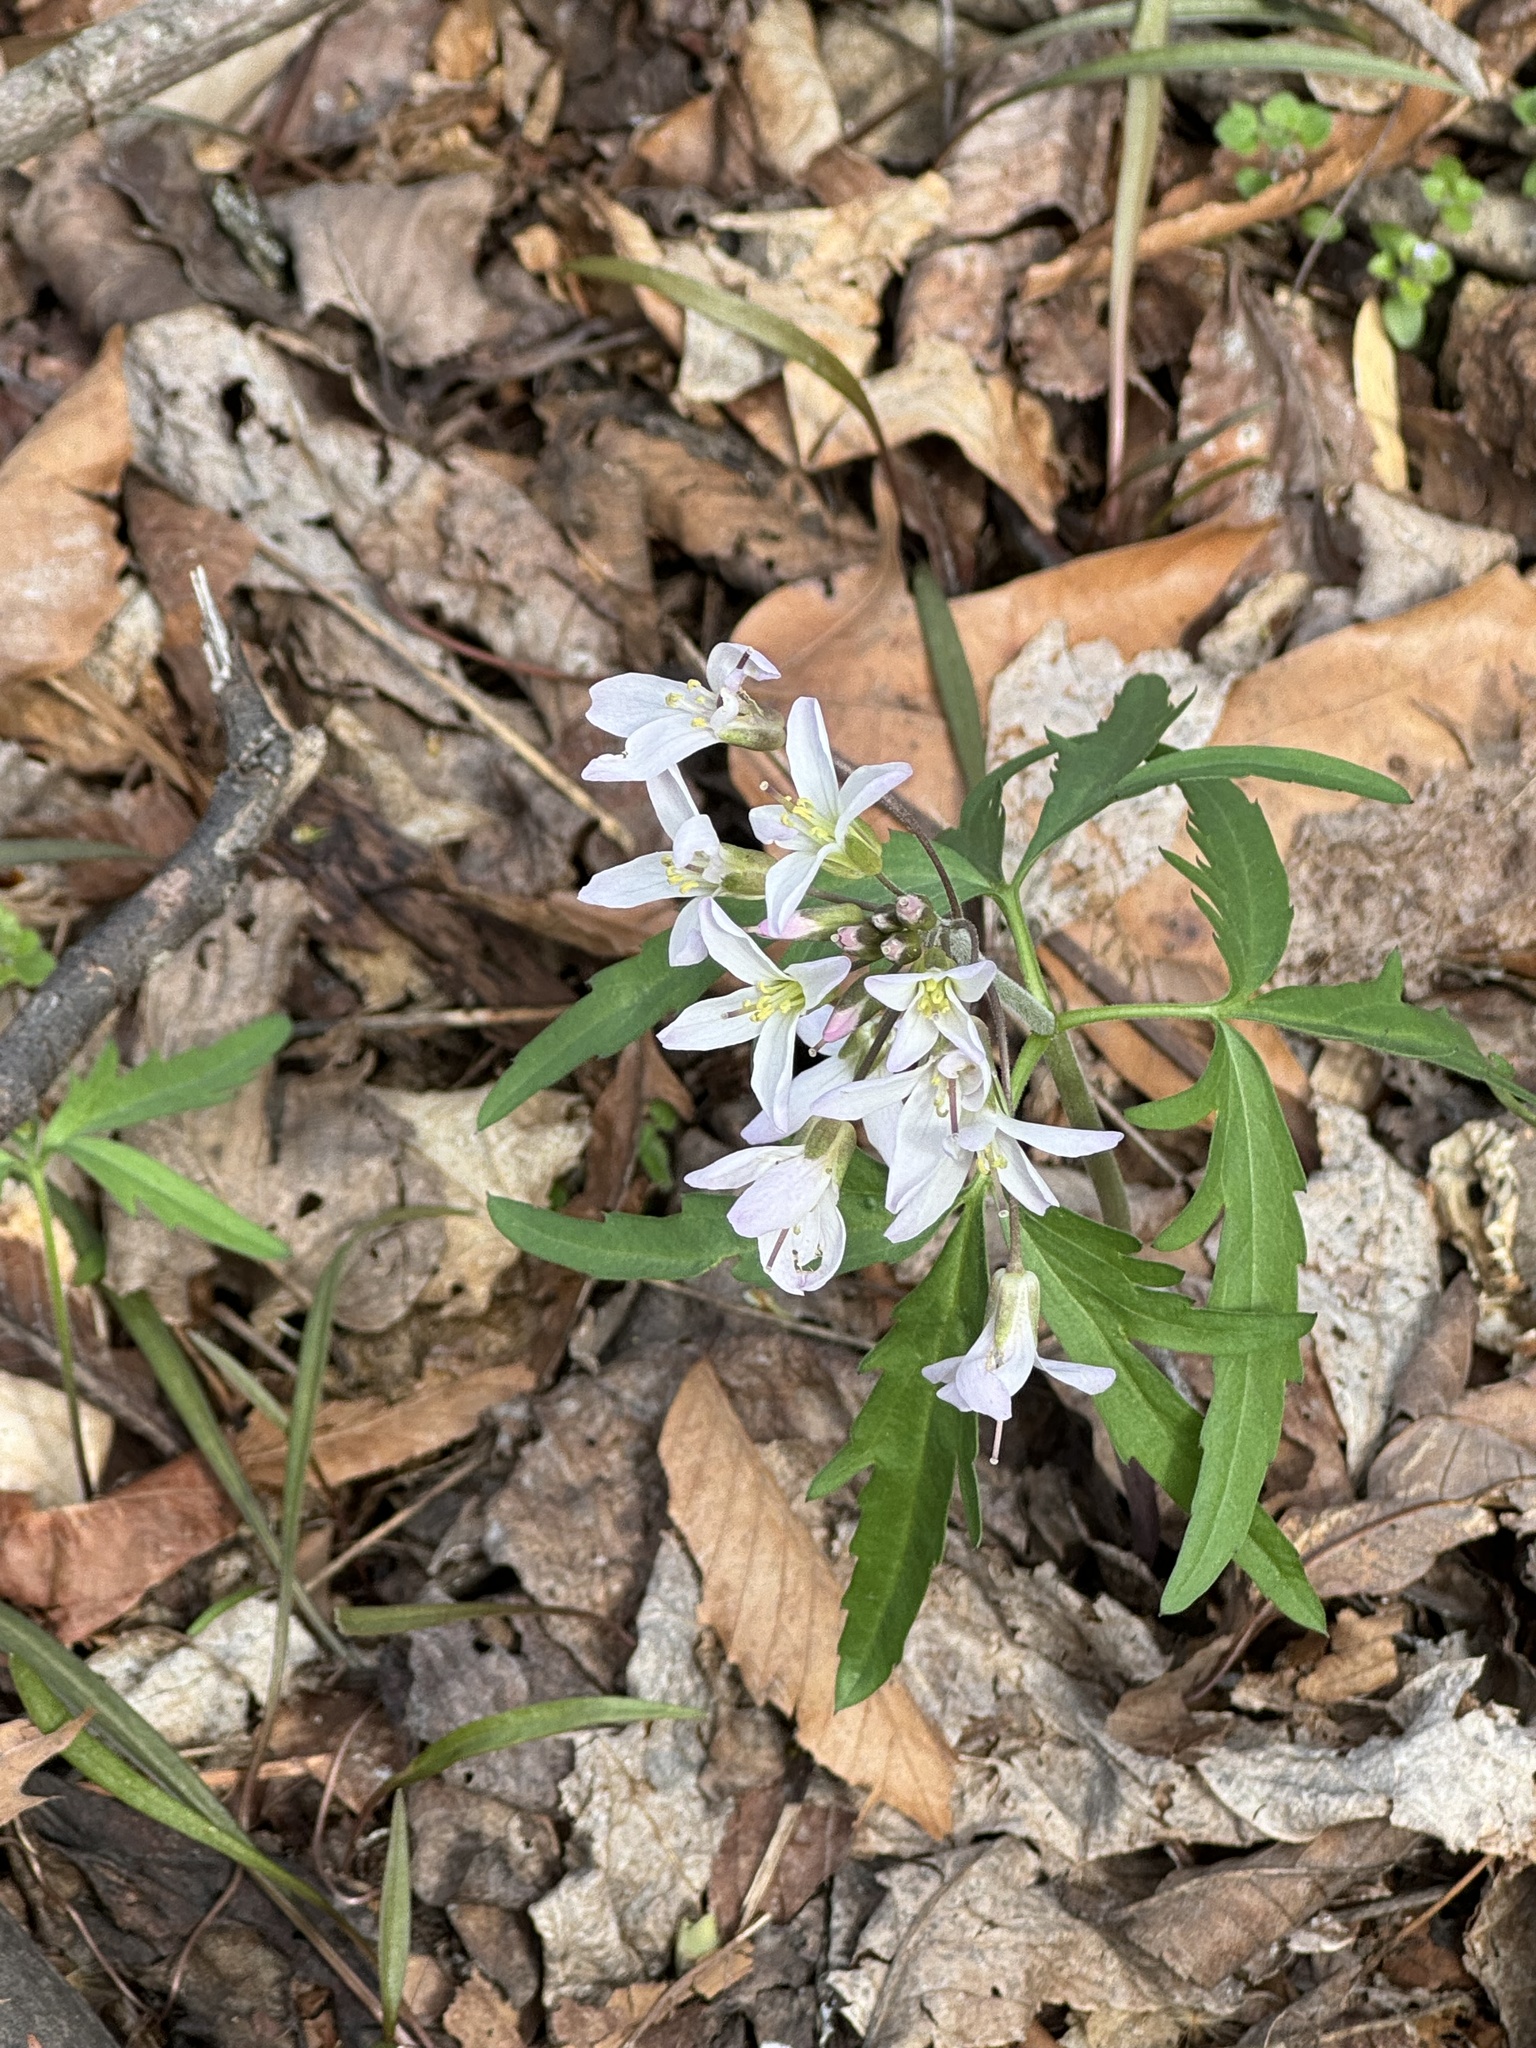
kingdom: Plantae
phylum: Tracheophyta
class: Magnoliopsida
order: Brassicales
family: Brassicaceae
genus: Cardamine
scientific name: Cardamine concatenata
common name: Cut-leaf toothcup
